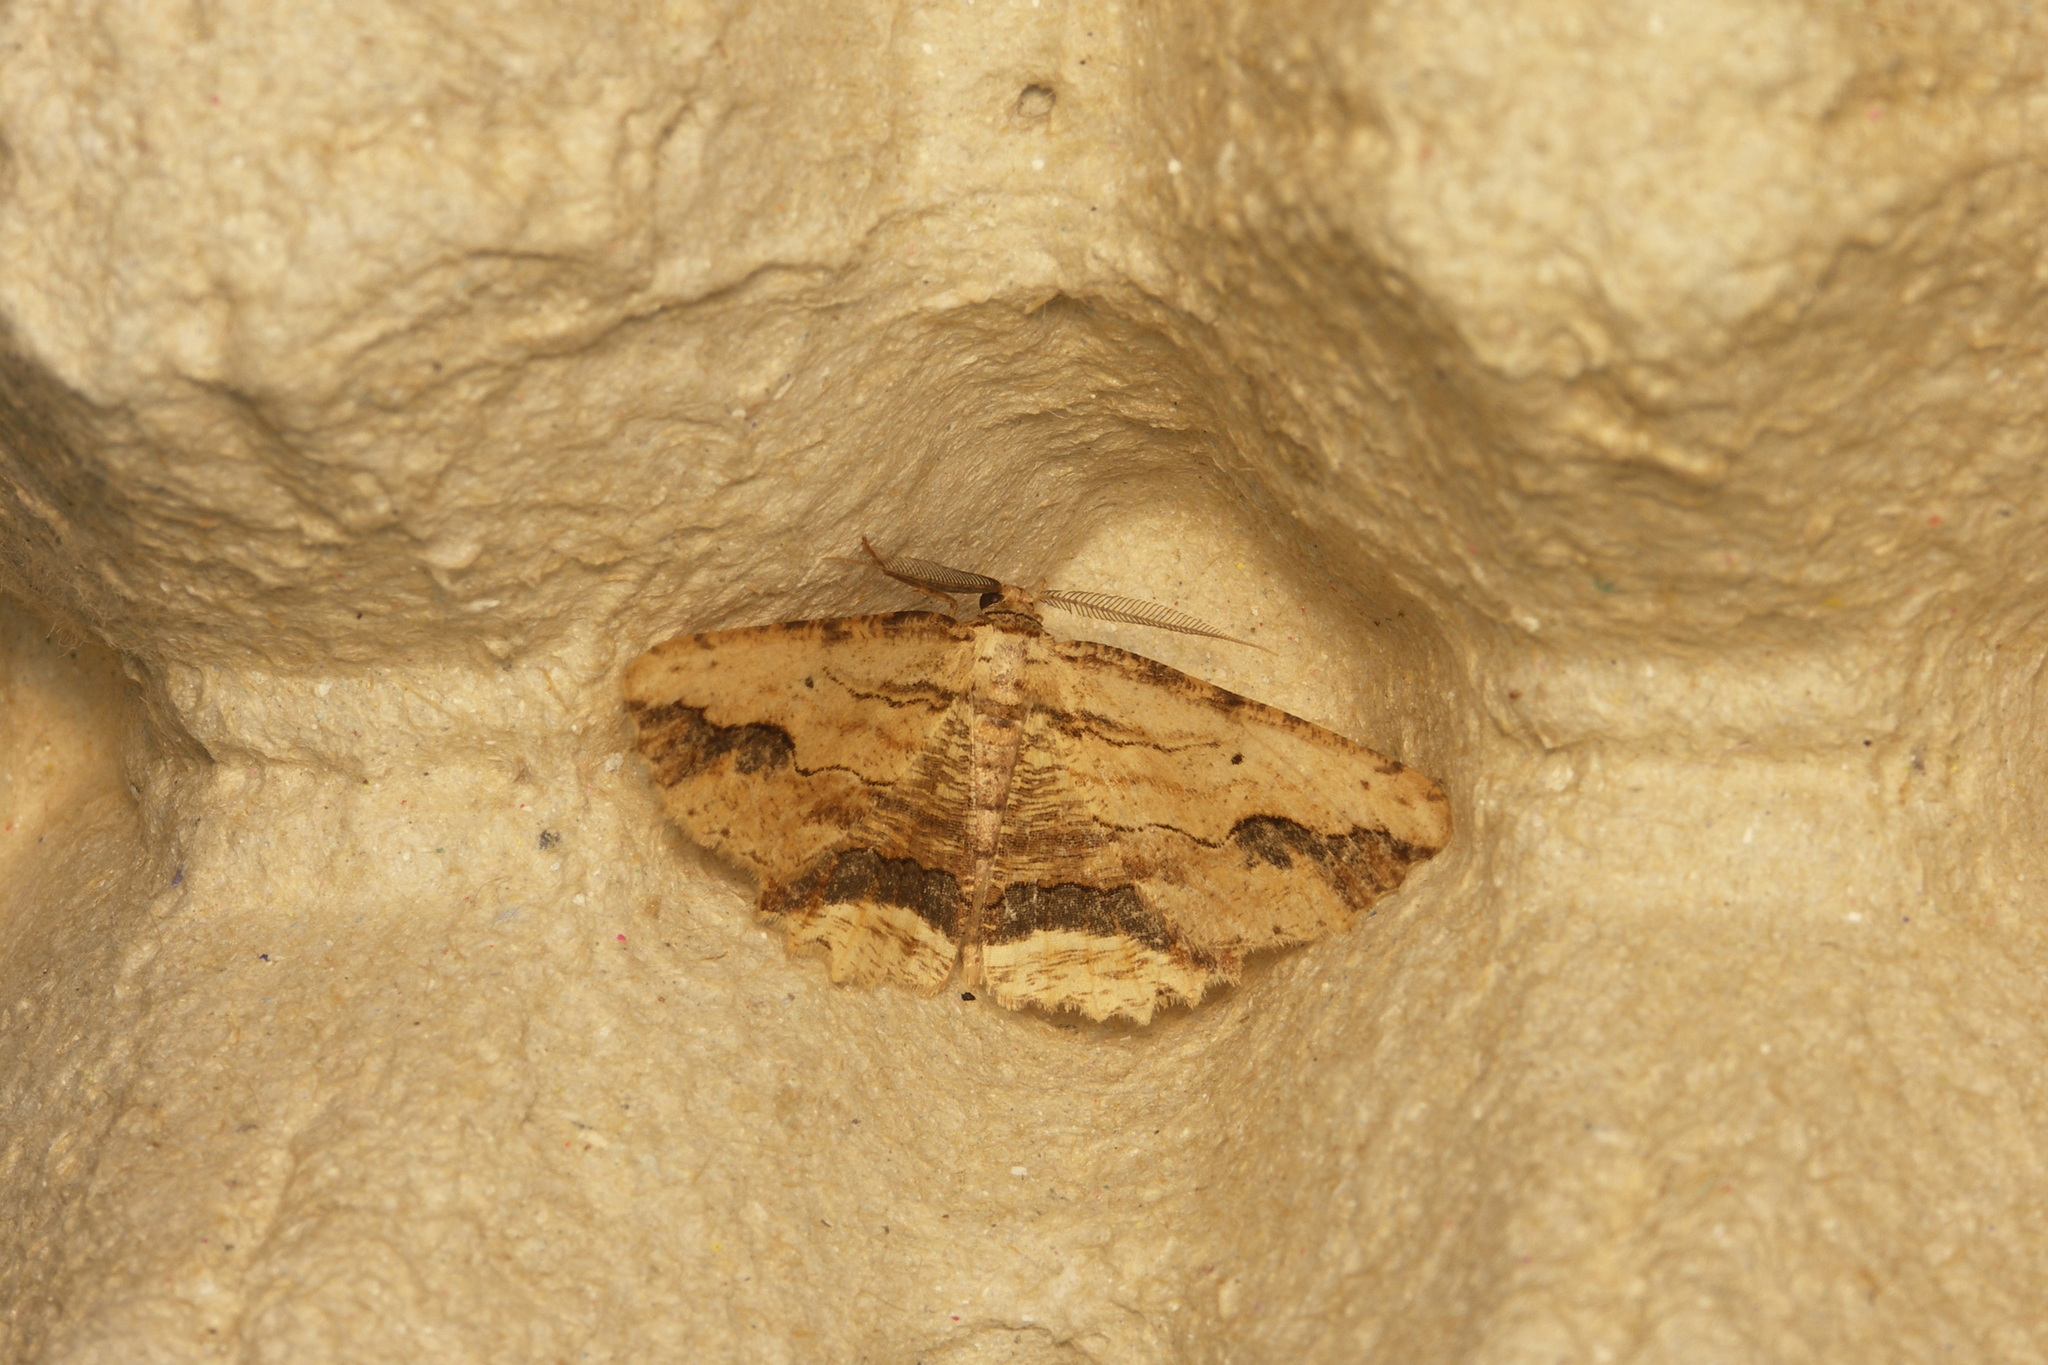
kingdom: Animalia
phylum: Arthropoda
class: Insecta
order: Lepidoptera
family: Geometridae
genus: Menophra
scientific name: Menophra abruptaria
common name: Waved umber
